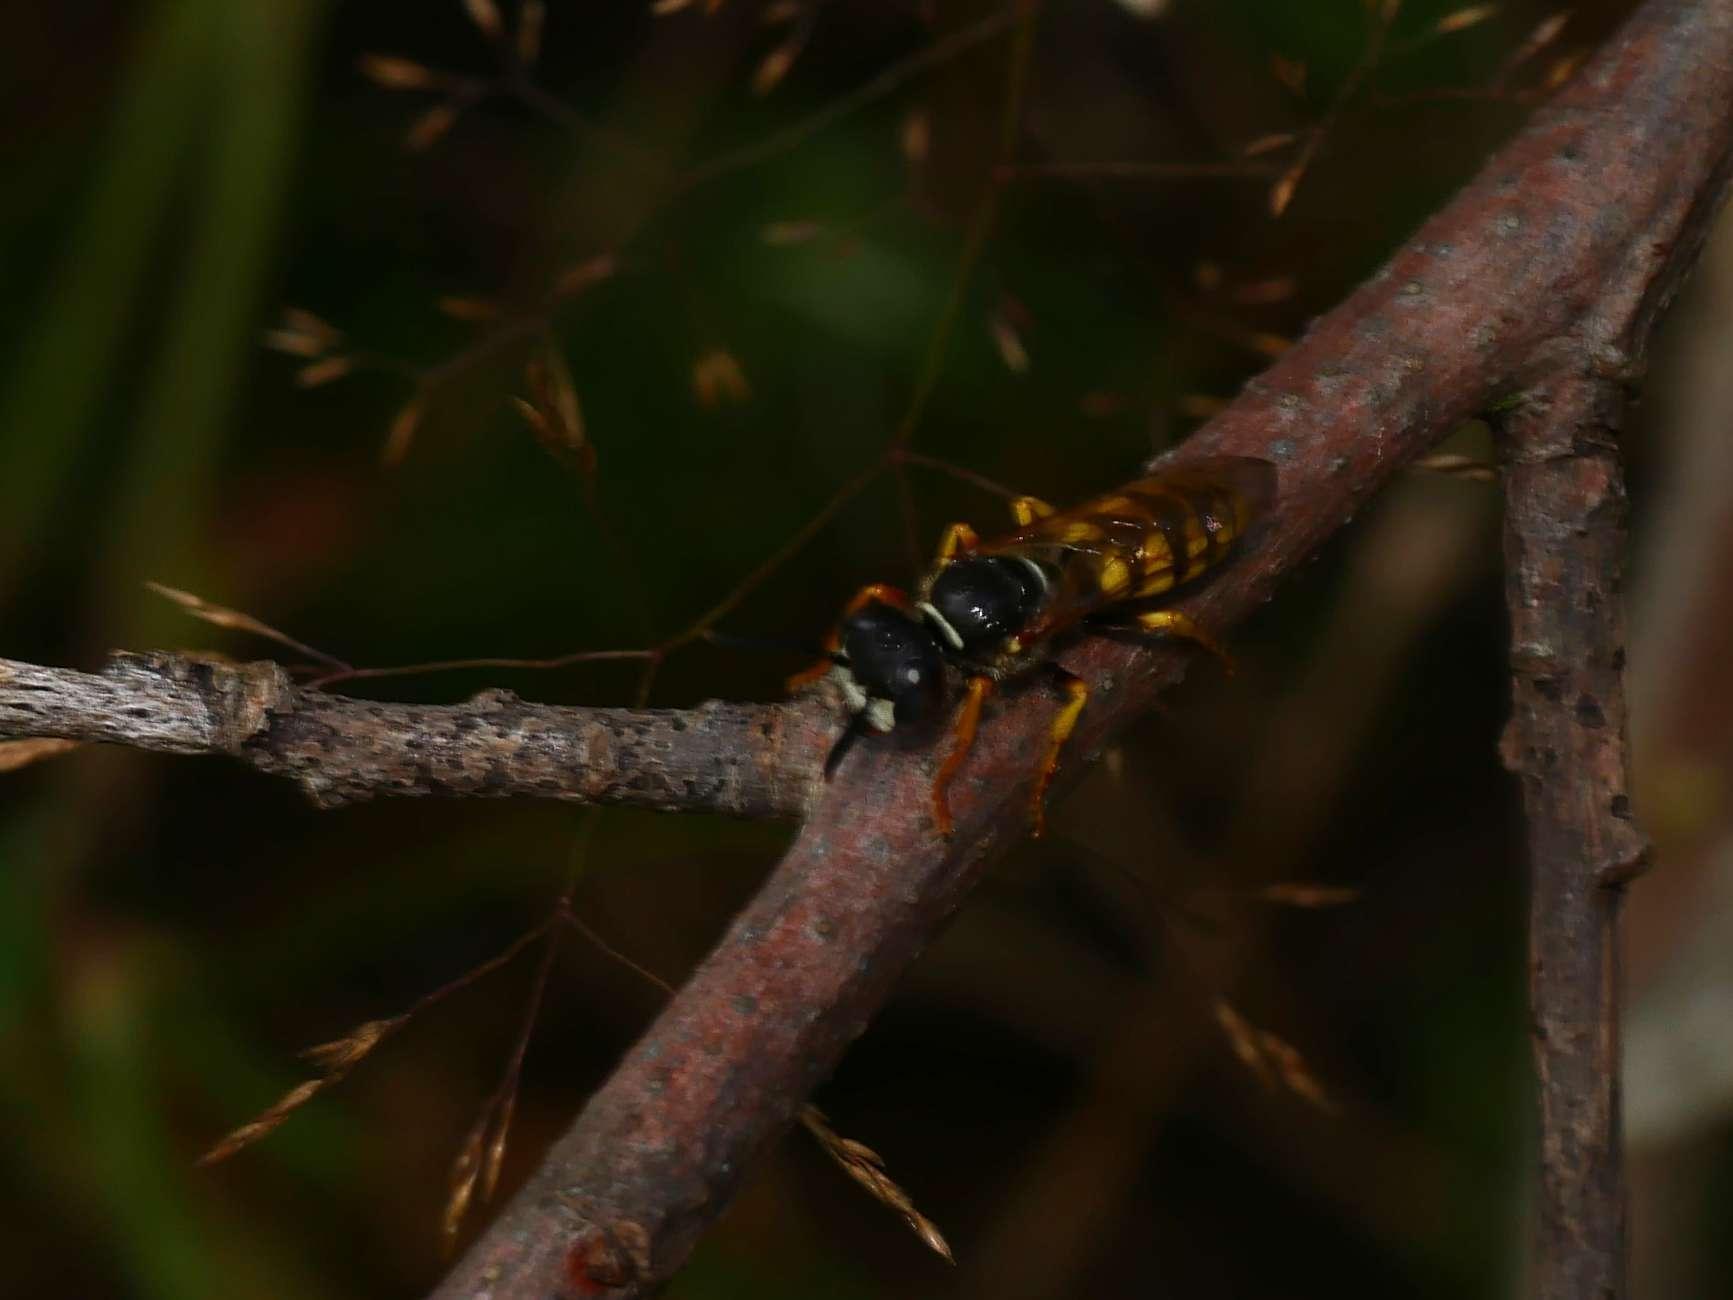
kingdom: Animalia
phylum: Arthropoda
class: Insecta
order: Hymenoptera
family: Crabronidae
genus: Philanthus
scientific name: Philanthus triangulum
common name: Bee wolf
